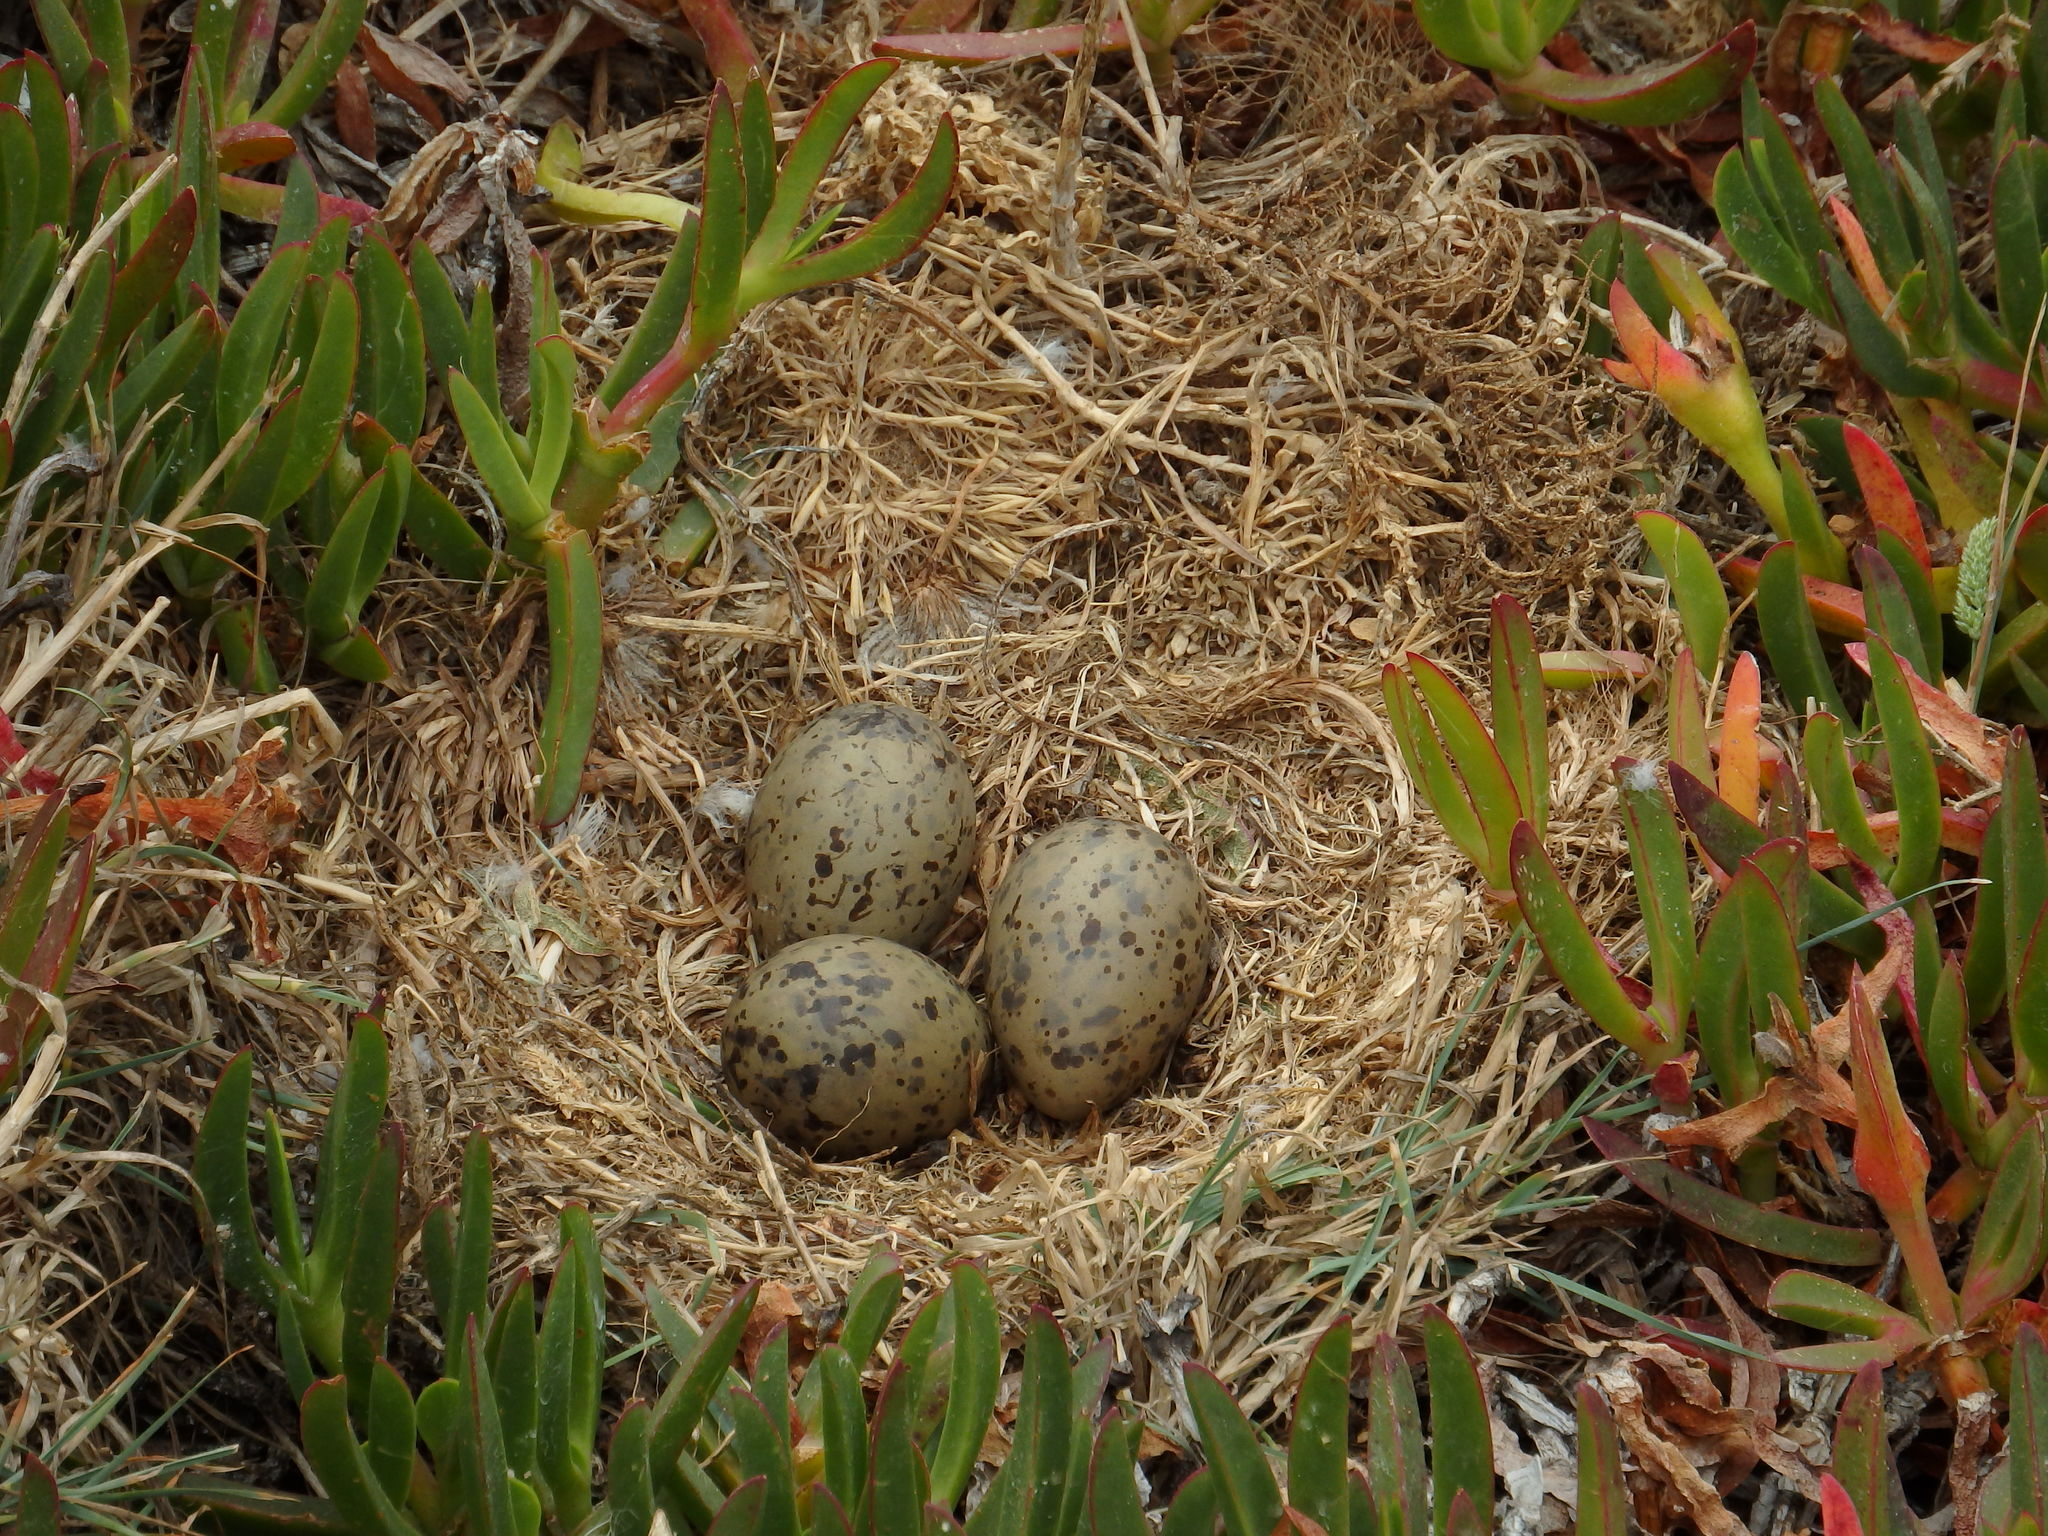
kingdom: Animalia
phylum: Chordata
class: Aves
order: Charadriiformes
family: Laridae
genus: Larus
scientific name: Larus michahellis
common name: Yellow-legged gull
